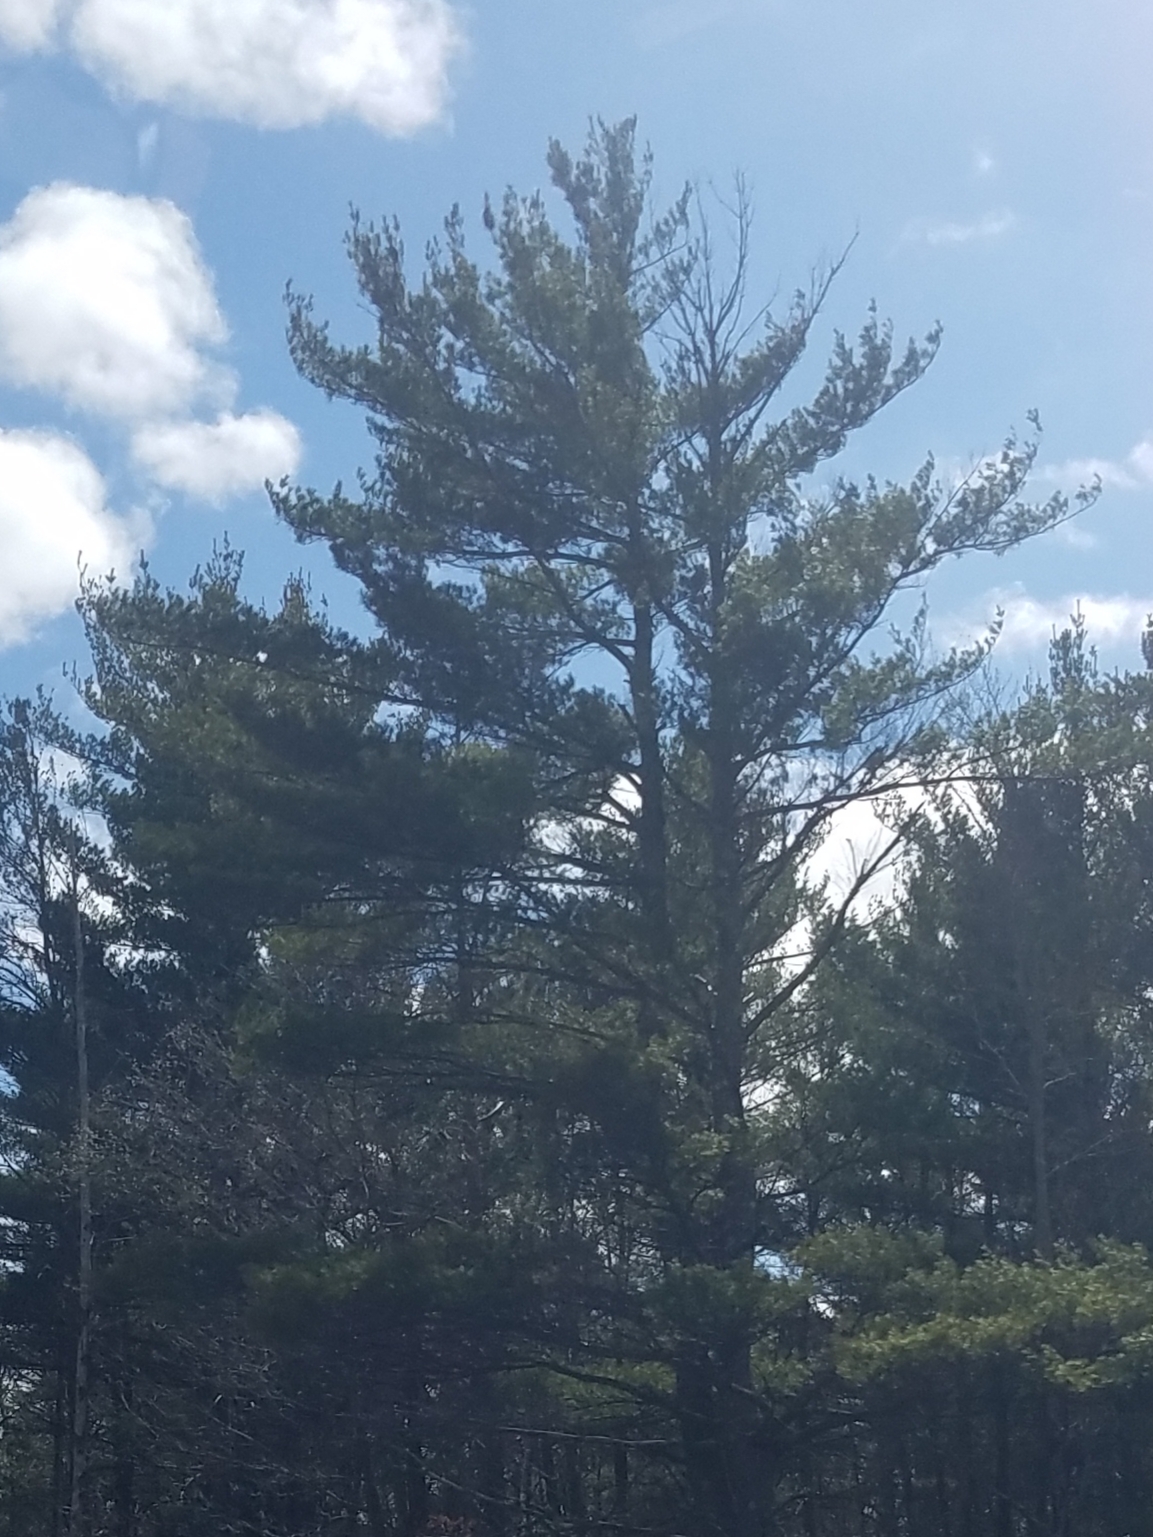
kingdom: Plantae
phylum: Tracheophyta
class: Pinopsida
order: Pinales
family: Pinaceae
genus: Pinus
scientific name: Pinus strobus
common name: Weymouth pine
